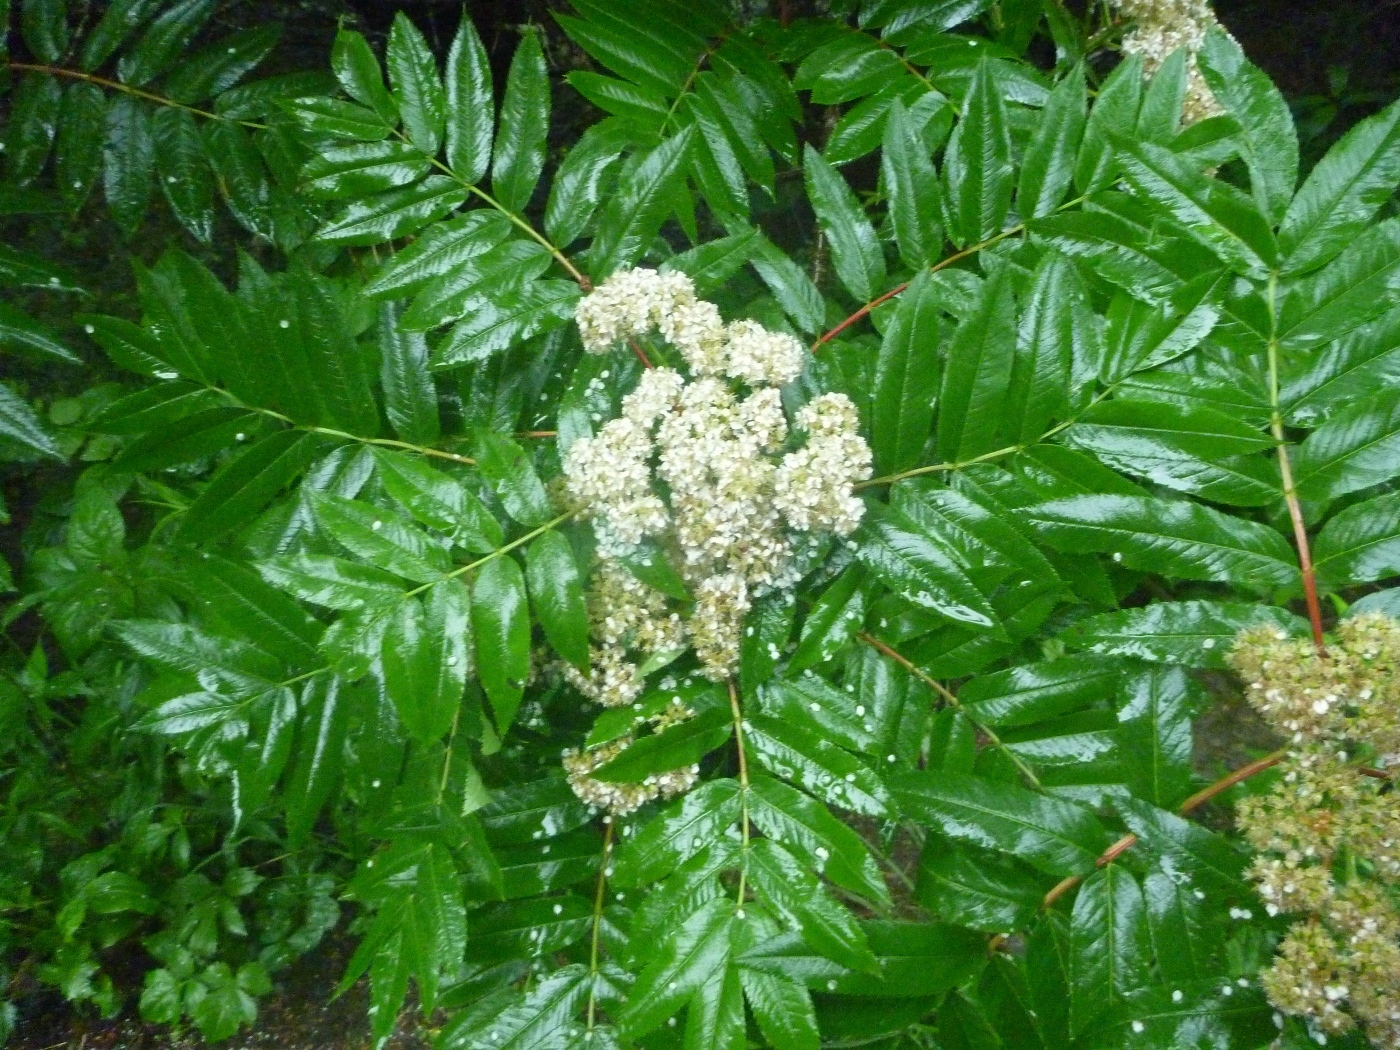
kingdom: Plantae
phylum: Tracheophyta
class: Magnoliopsida
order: Rosales
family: Rosaceae
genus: Sorbus
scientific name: Sorbus americana
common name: American mountain-ash
